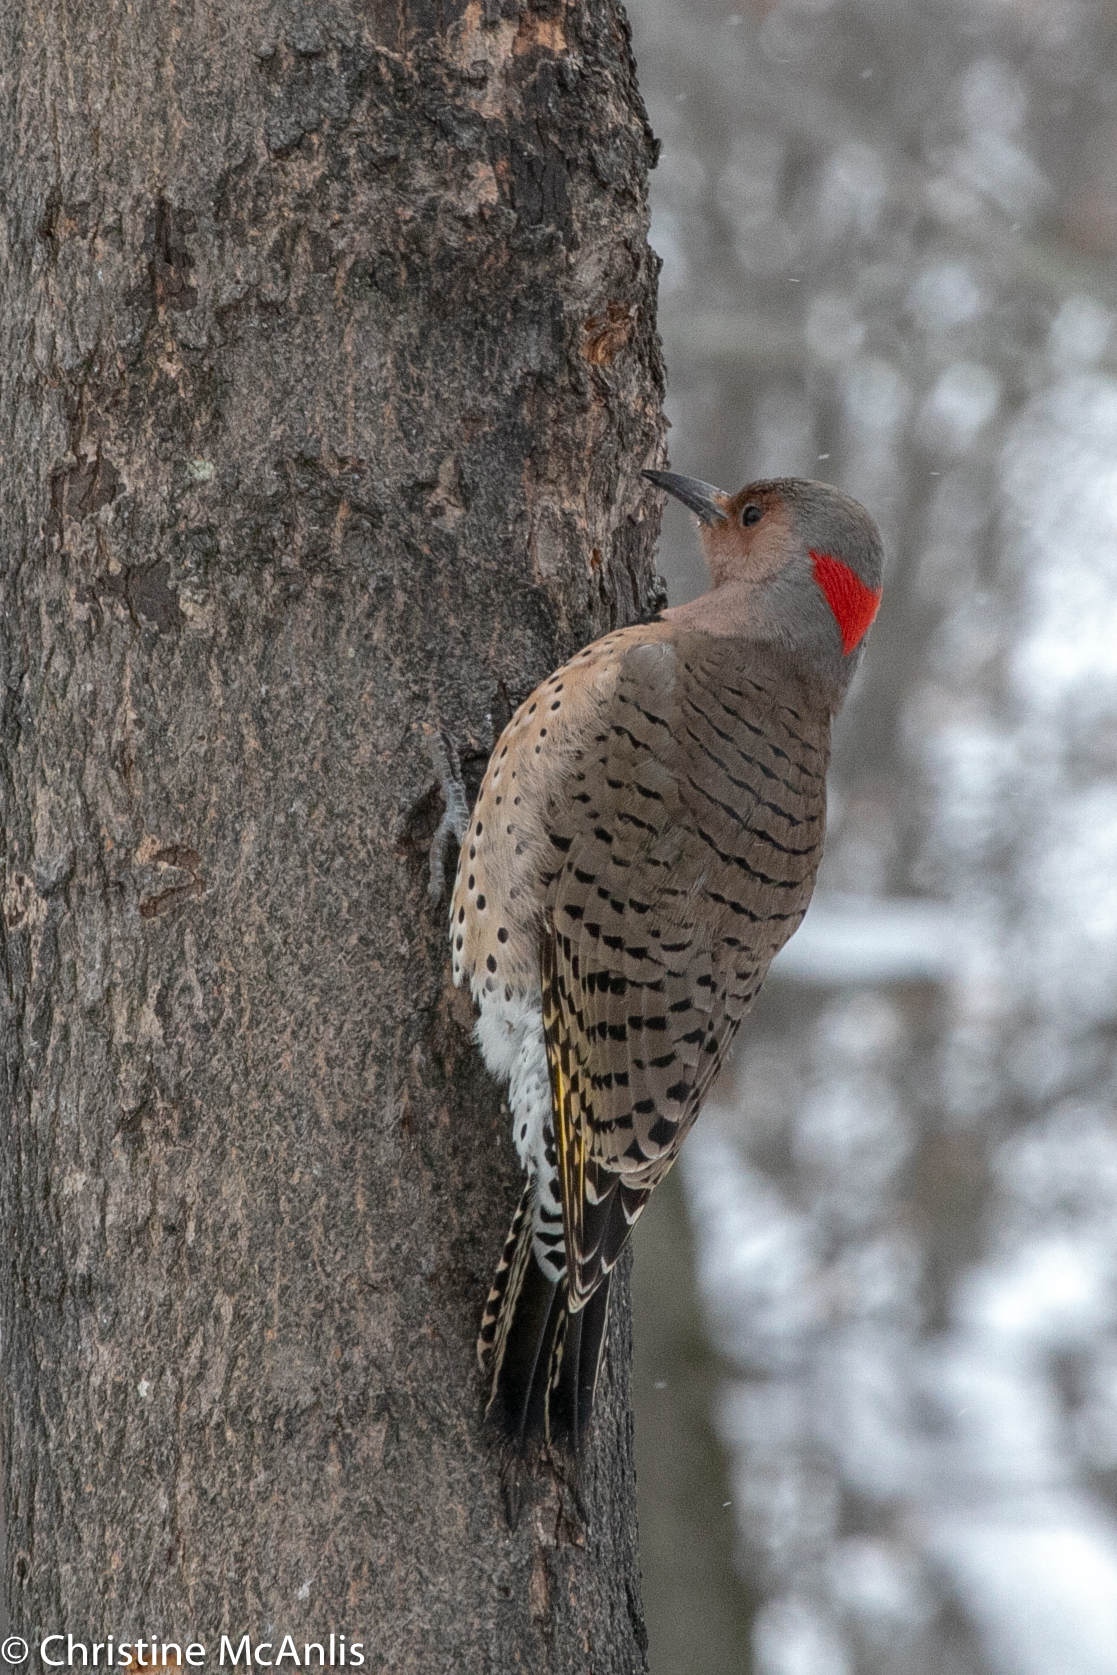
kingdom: Animalia
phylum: Chordata
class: Aves
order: Piciformes
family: Picidae
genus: Colaptes
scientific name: Colaptes auratus
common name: Northern flicker
